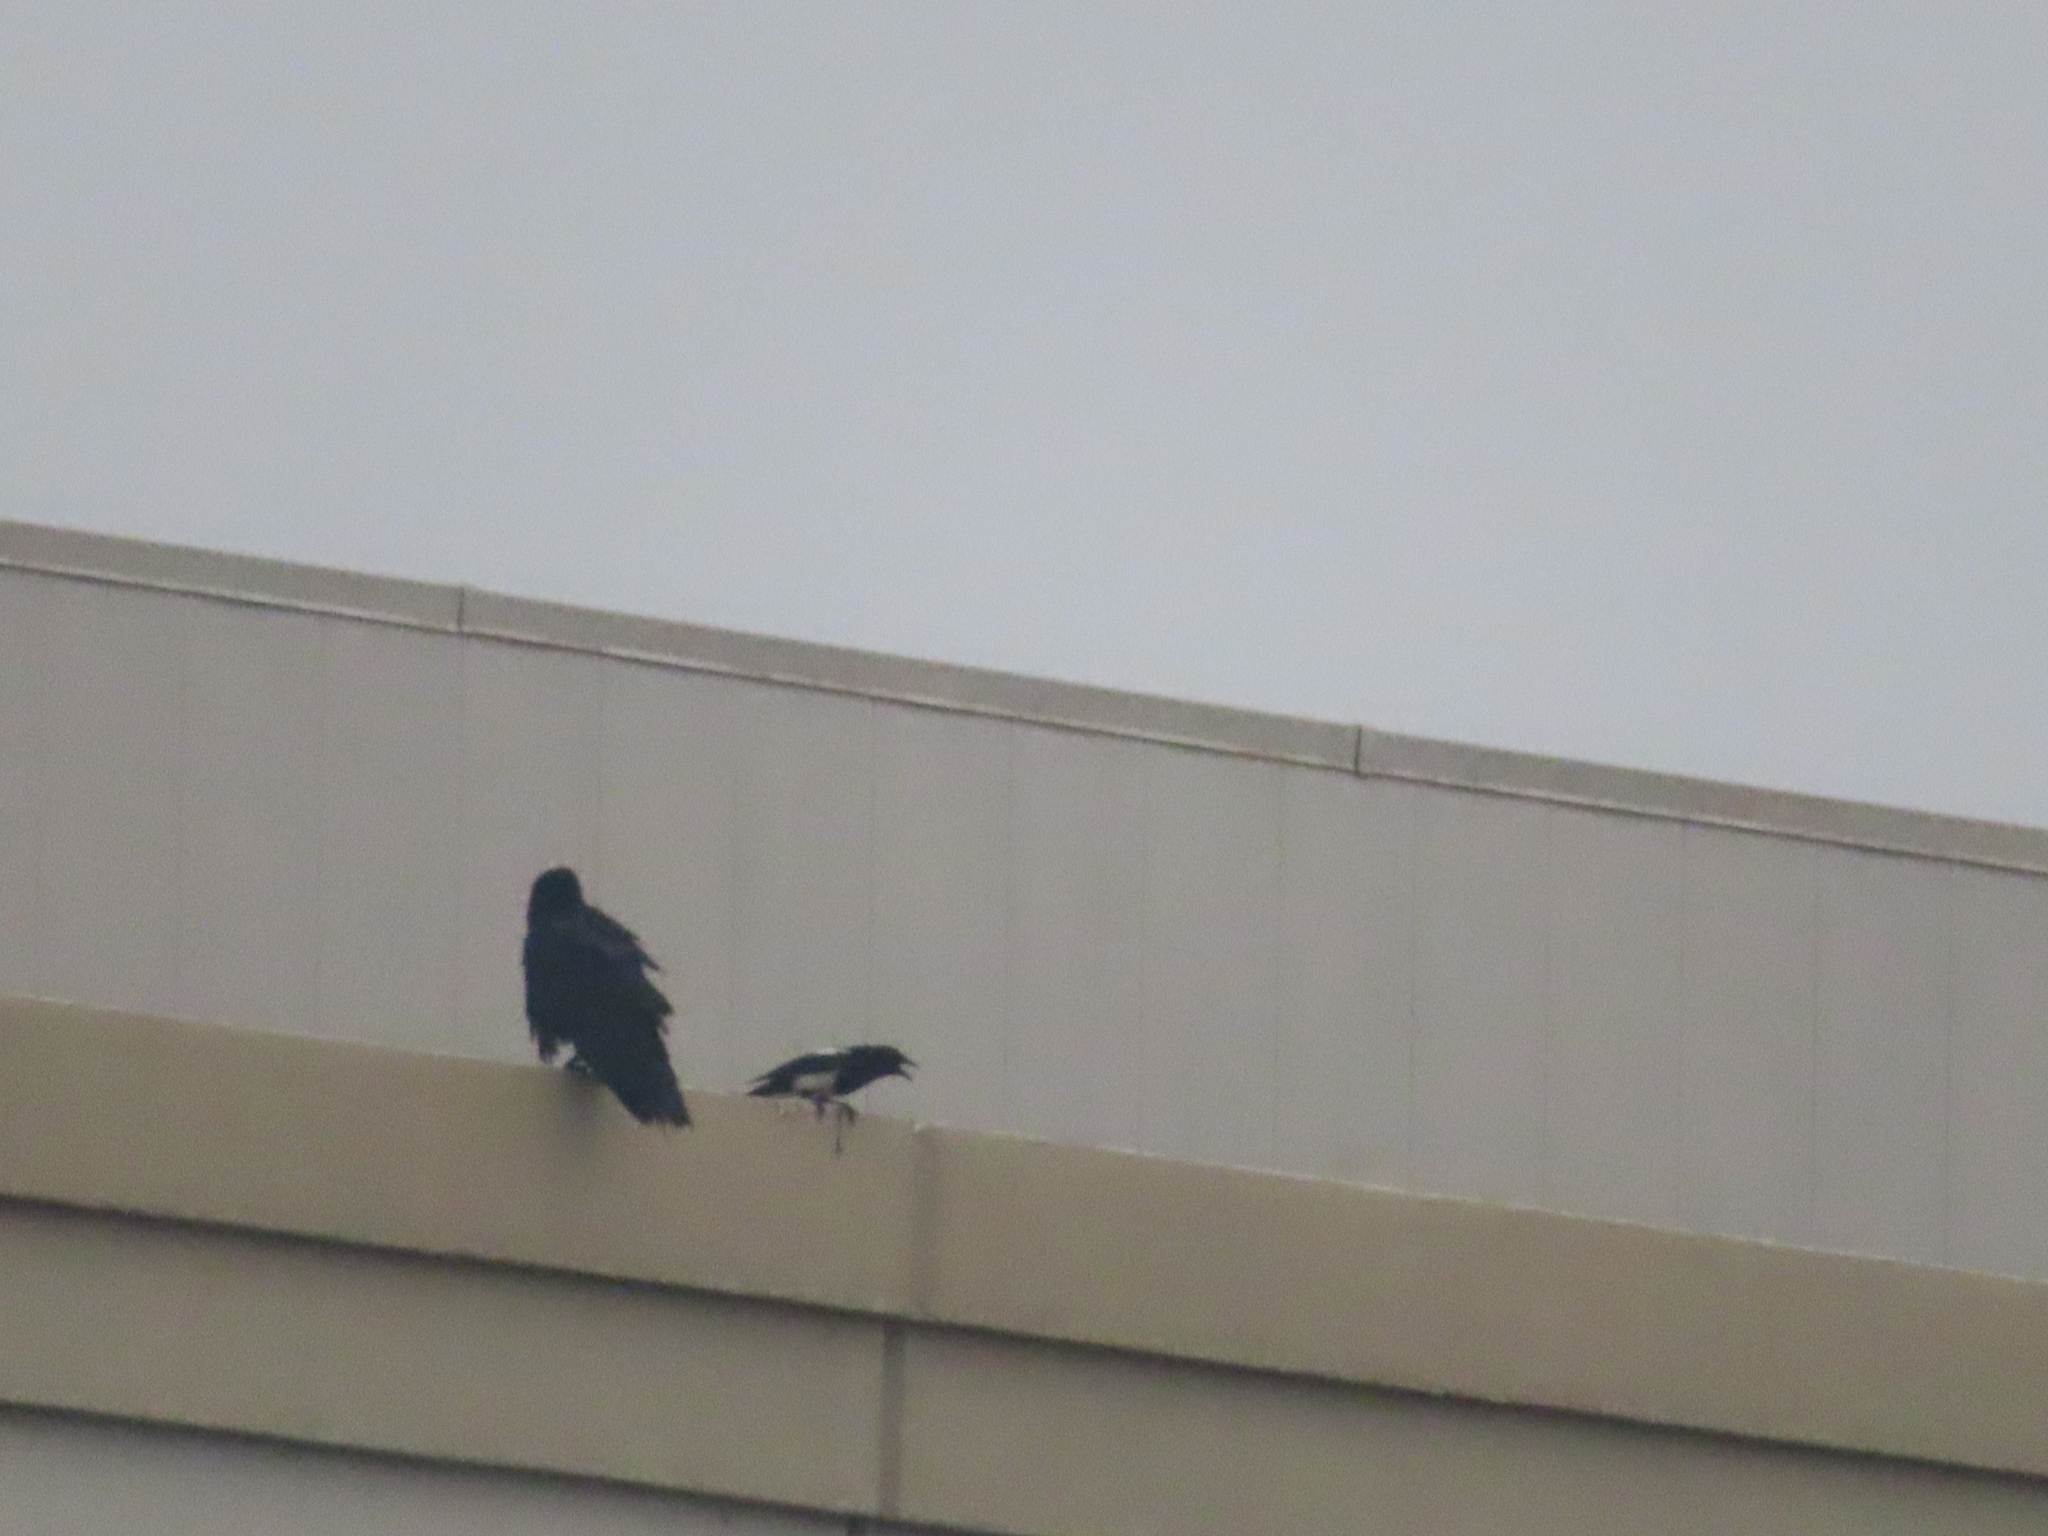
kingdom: Animalia
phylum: Chordata
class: Aves
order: Passeriformes
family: Corvidae
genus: Pica
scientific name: Pica hudsonia
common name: Black-billed magpie
